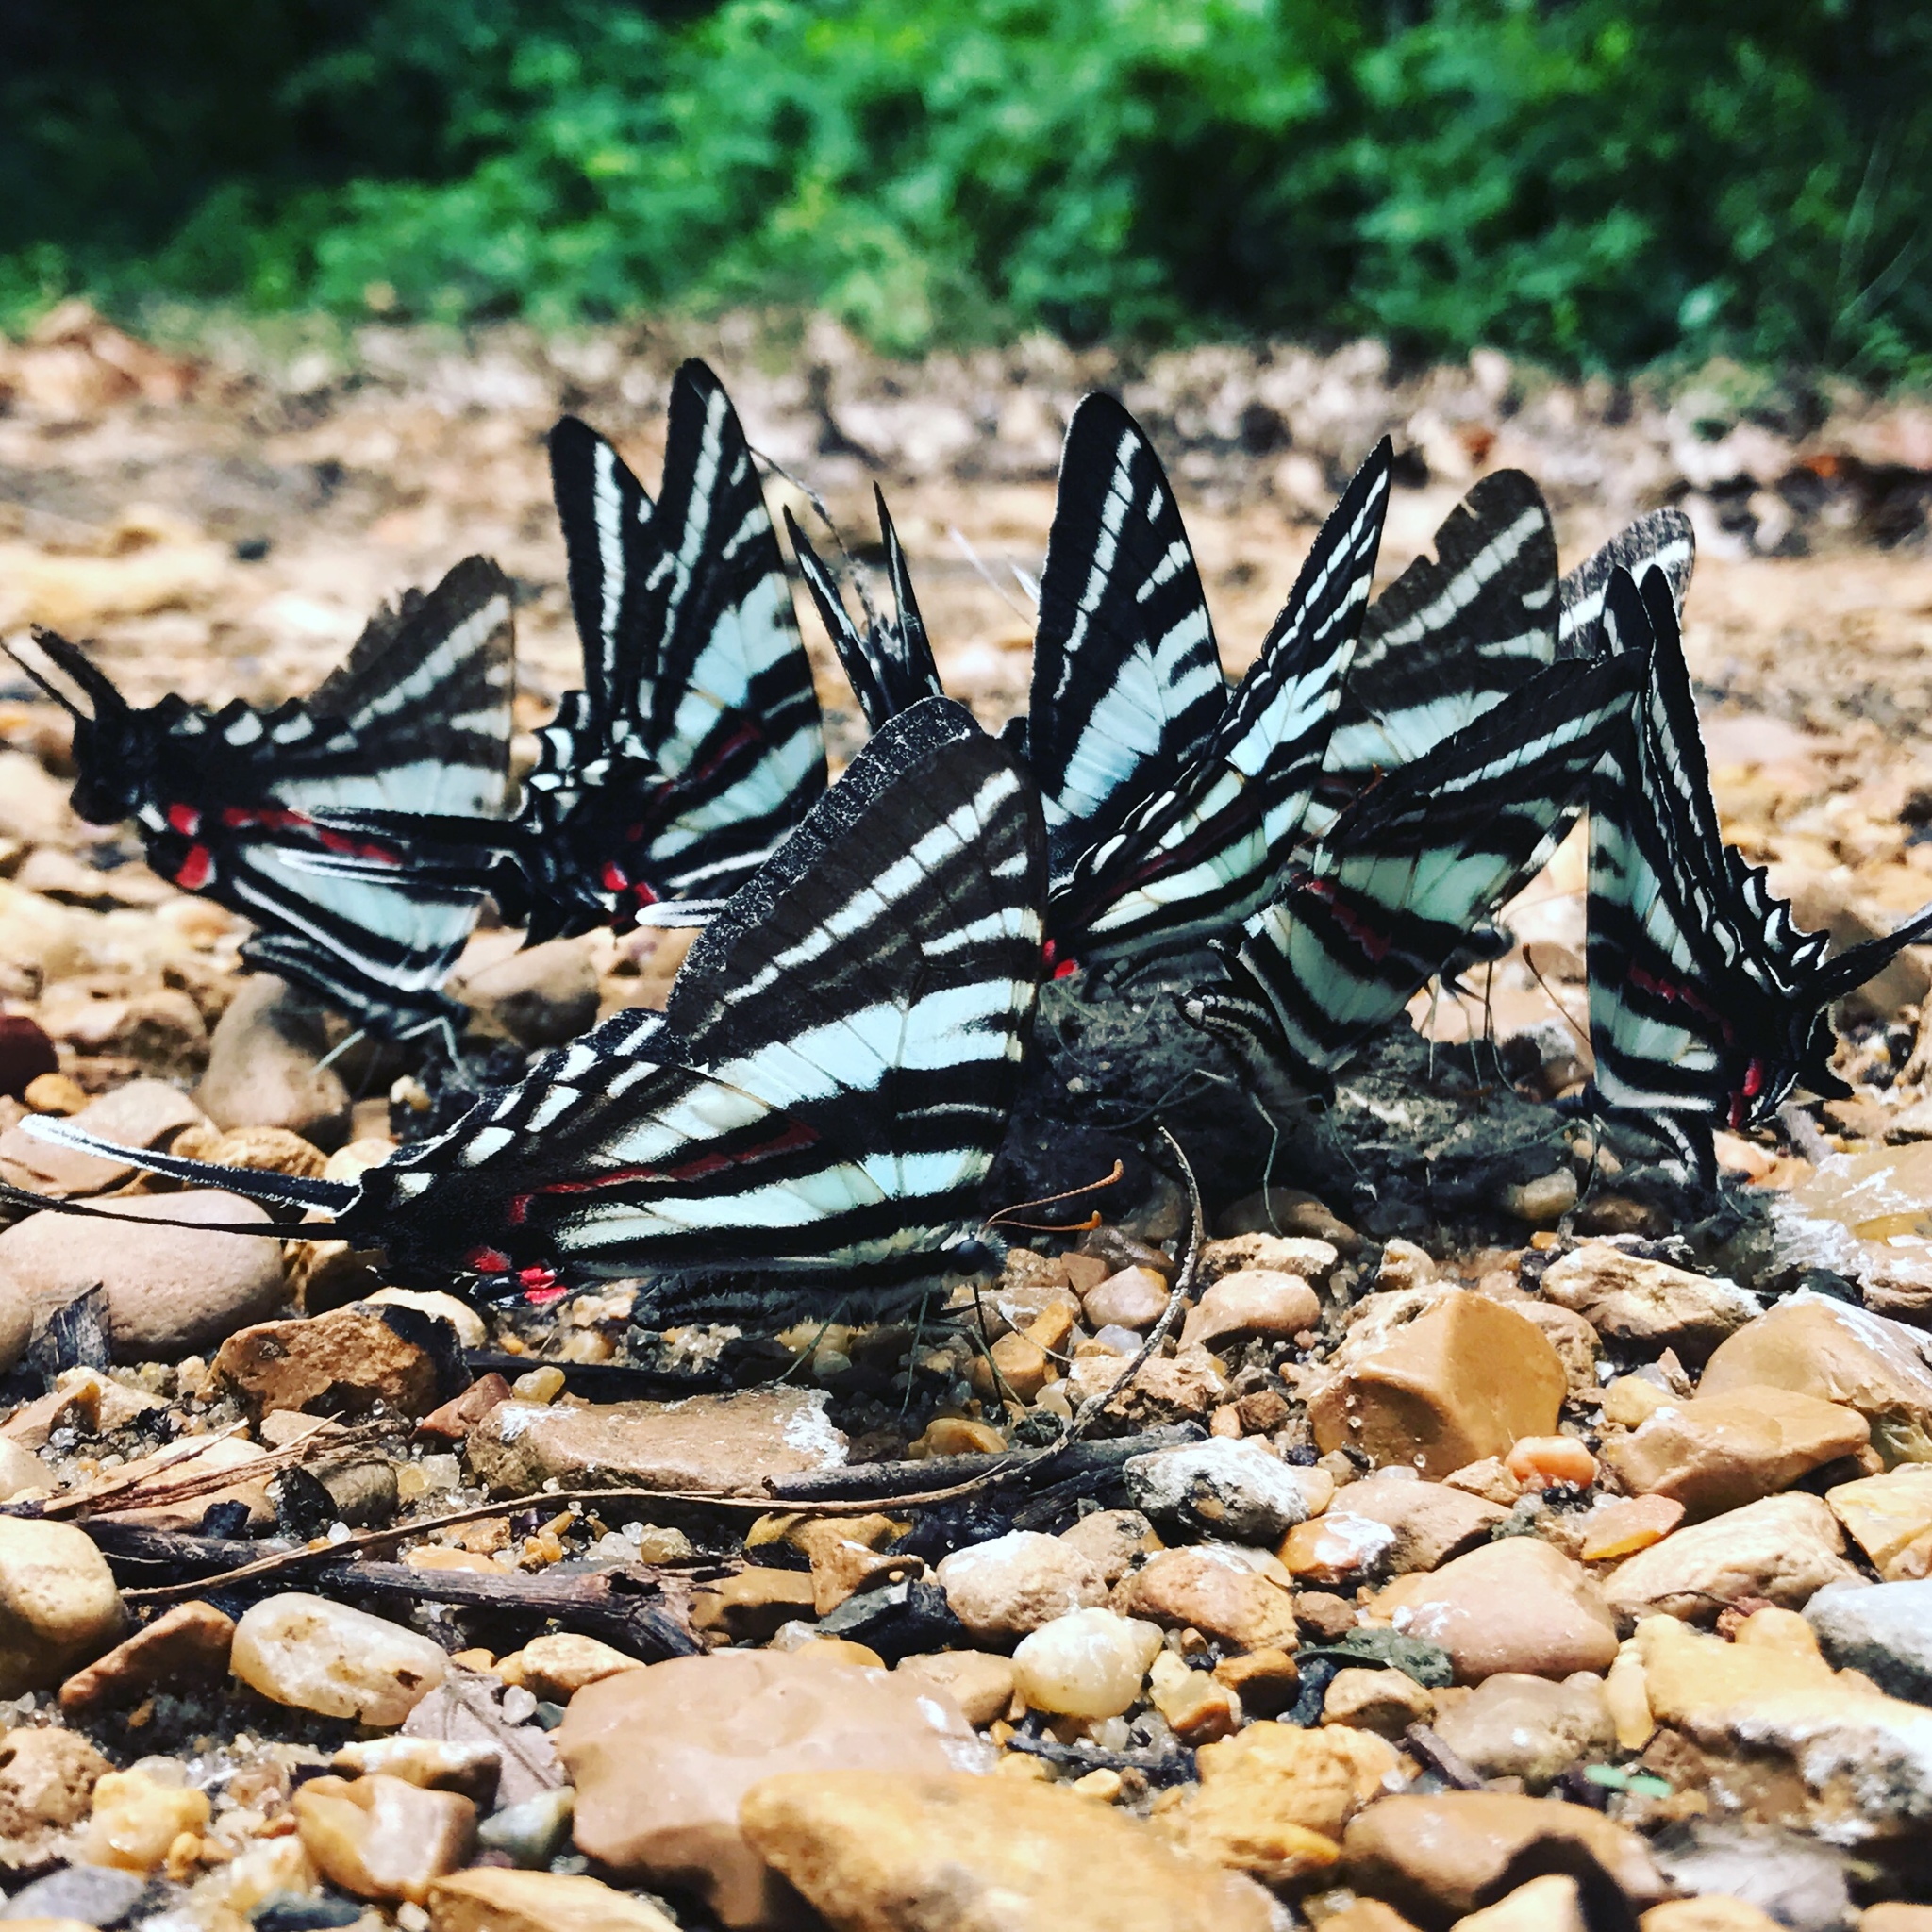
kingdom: Animalia
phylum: Arthropoda
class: Insecta
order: Lepidoptera
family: Papilionidae
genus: Protographium
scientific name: Protographium marcellus
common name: Zebra swallowtail
